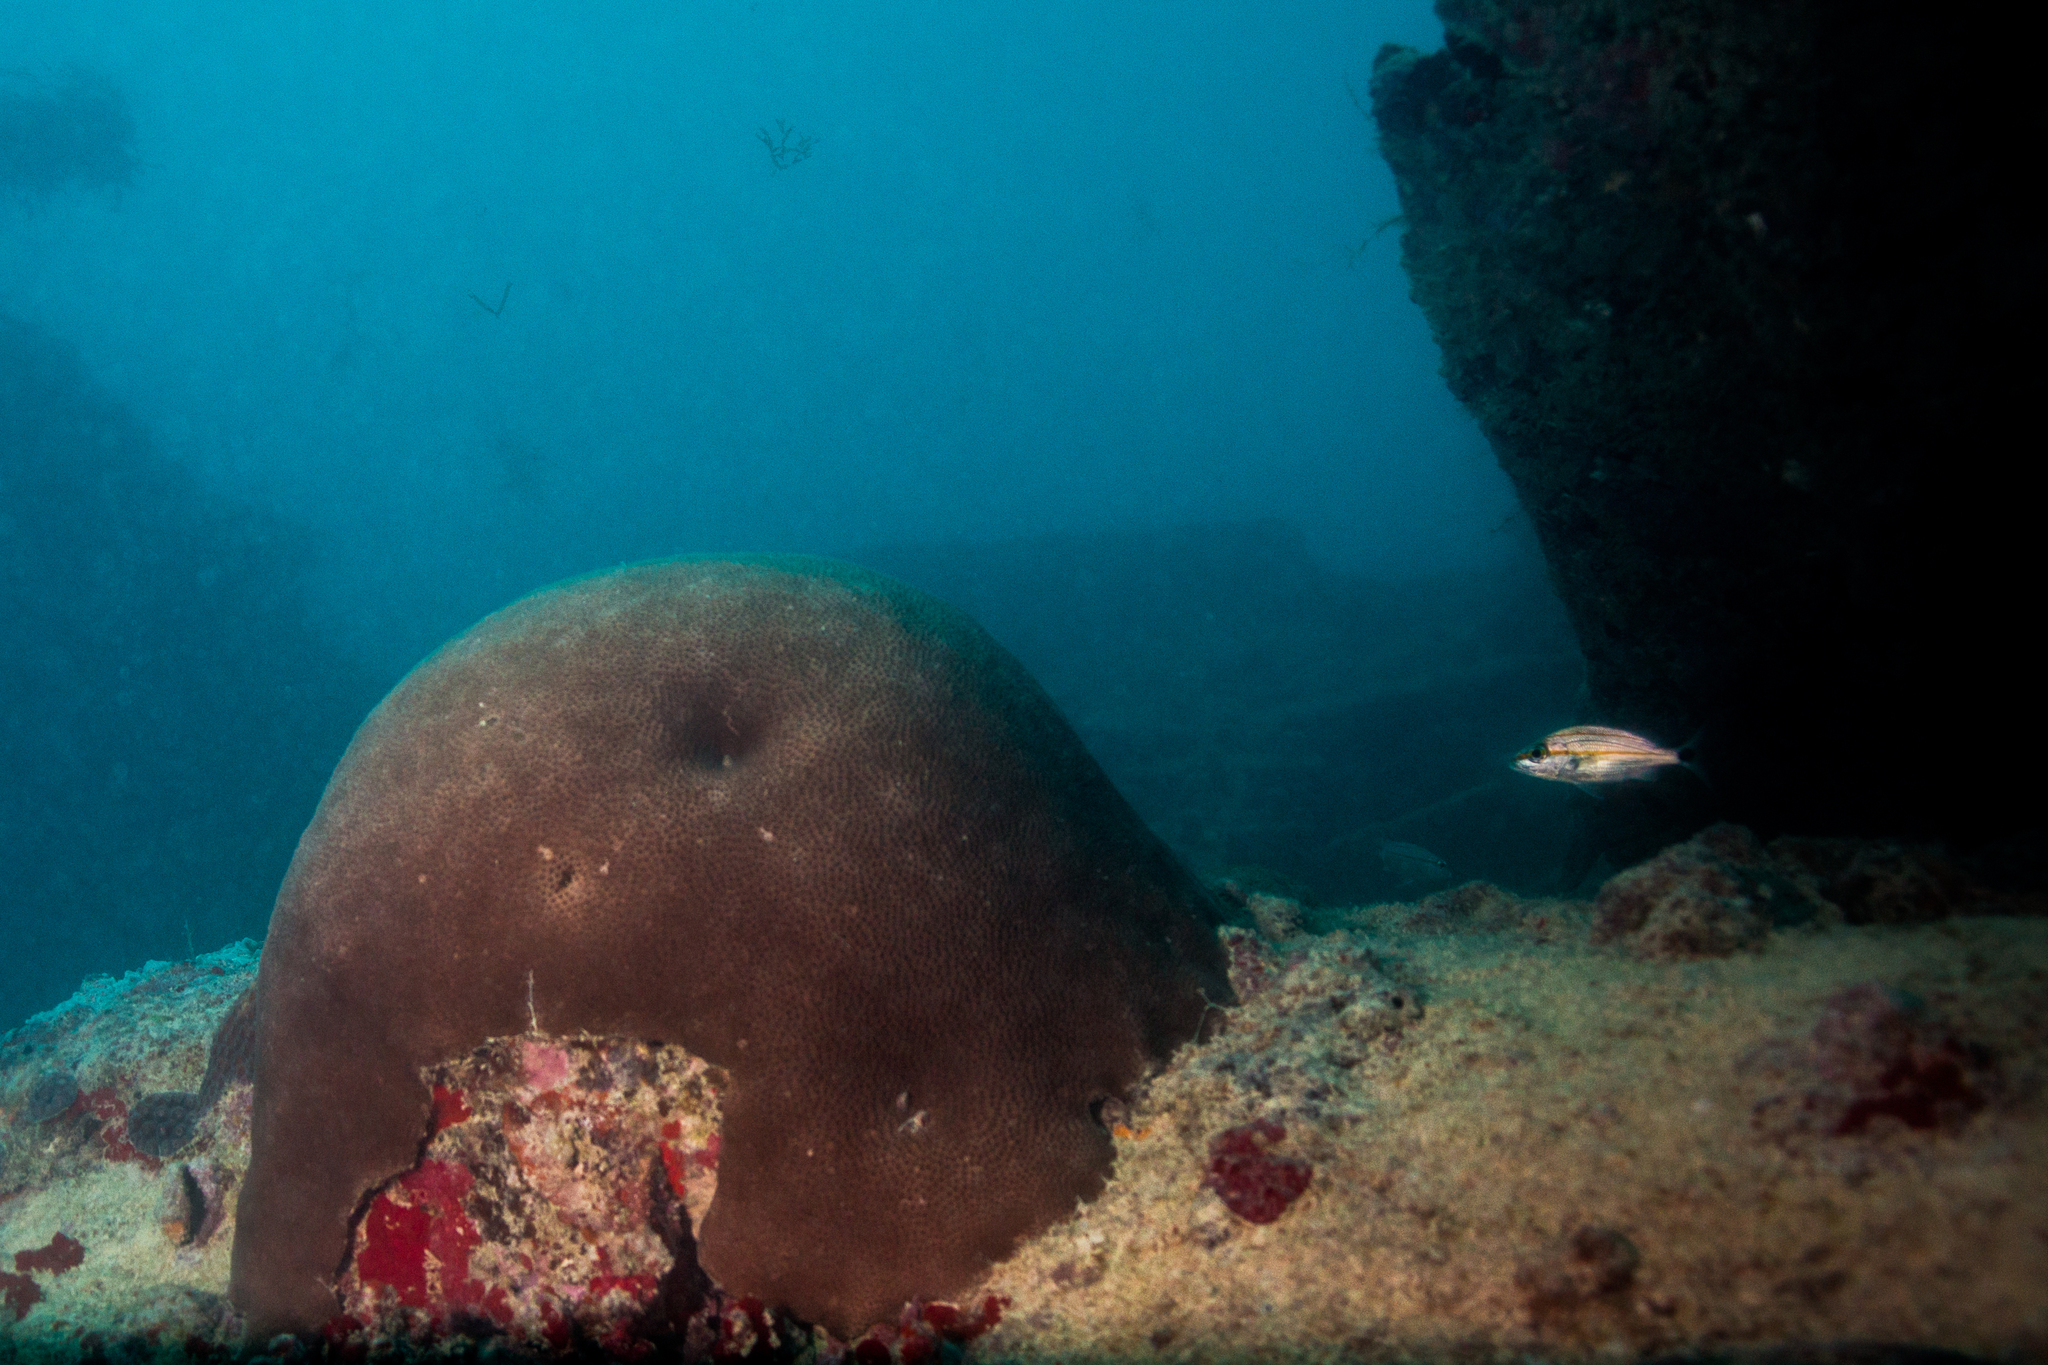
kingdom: Animalia
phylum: Cnidaria
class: Anthozoa
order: Scleractinia
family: Rhizangiidae
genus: Siderastrea
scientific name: Siderastrea siderea
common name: Massive starlet coral
